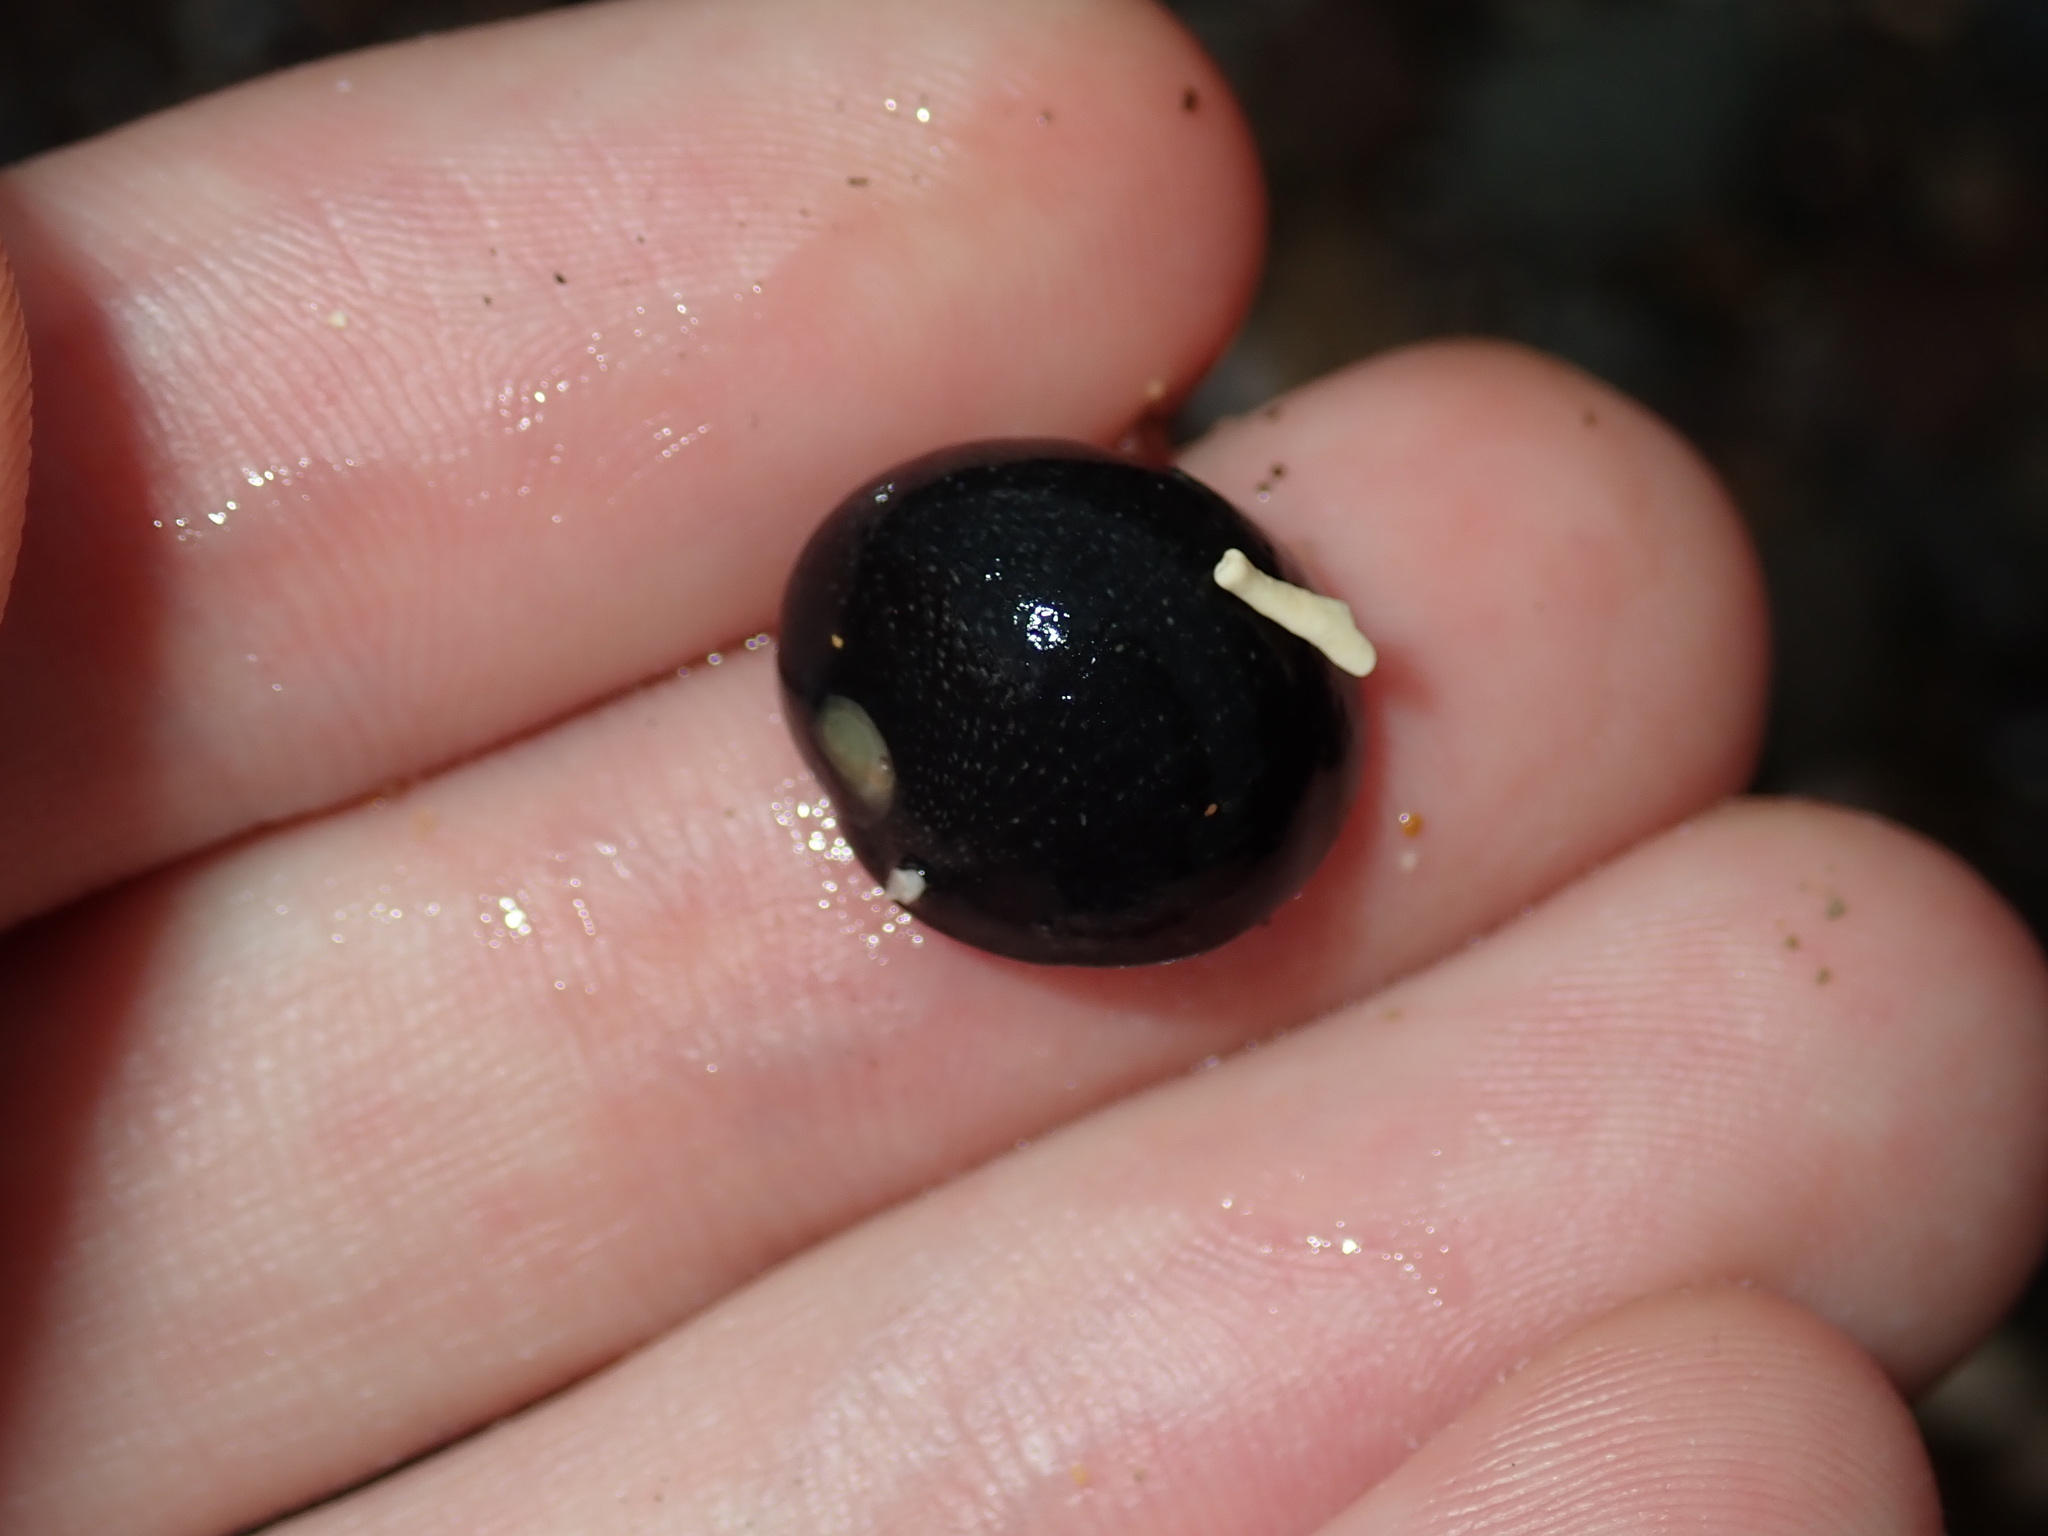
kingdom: Animalia
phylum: Mollusca
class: Gastropoda
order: Cycloneritida
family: Neritidae
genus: Nerita
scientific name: Nerita melanotragus
